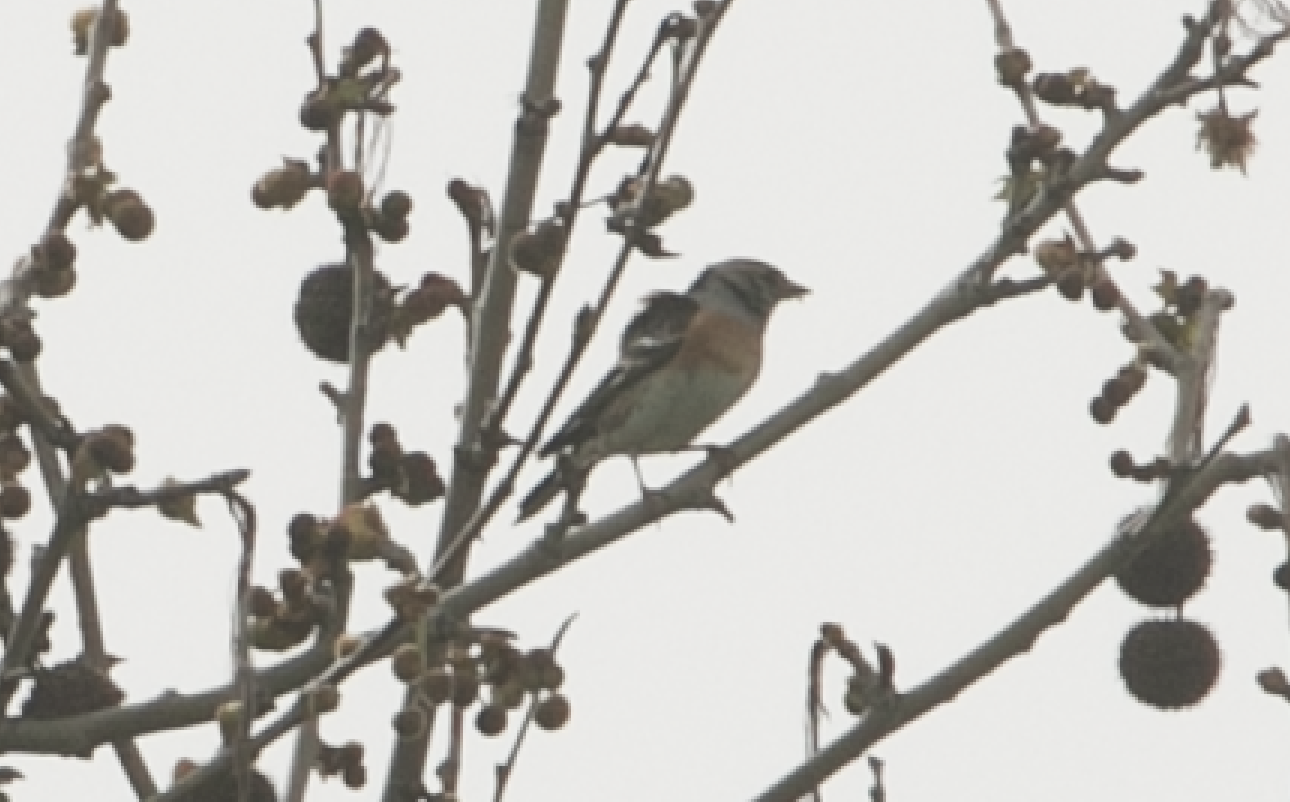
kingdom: Animalia
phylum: Chordata
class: Aves
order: Passeriformes
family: Fringillidae
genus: Fringilla
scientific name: Fringilla montifringilla
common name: Brambling
